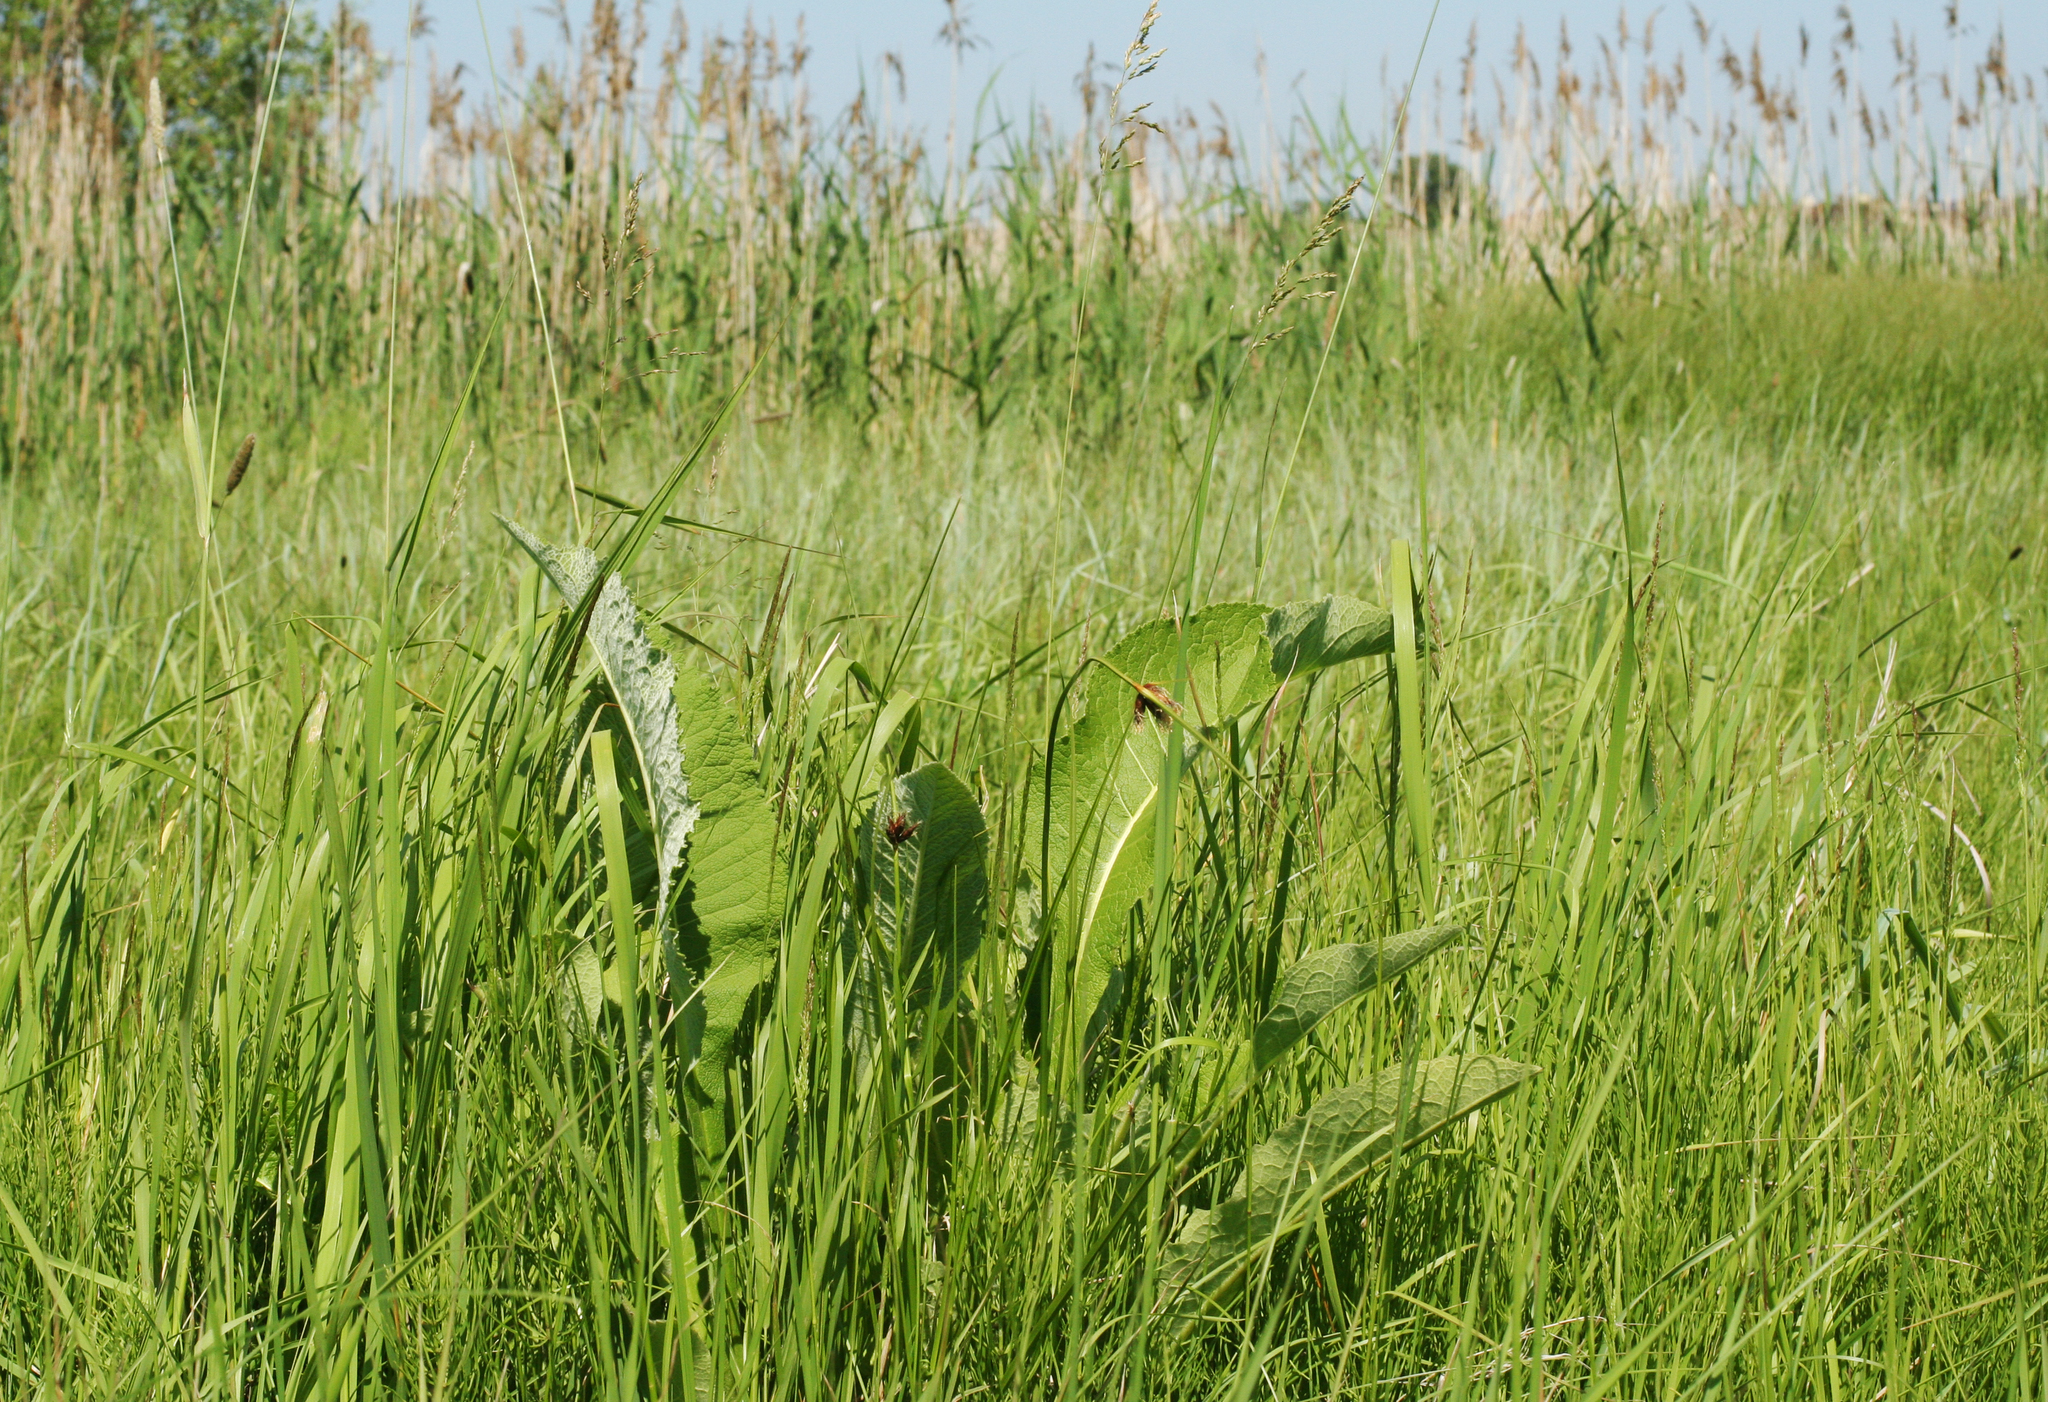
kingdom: Plantae
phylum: Tracheophyta
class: Magnoliopsida
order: Asterales
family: Asteraceae
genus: Inula
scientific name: Inula helenium
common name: Elecampane
